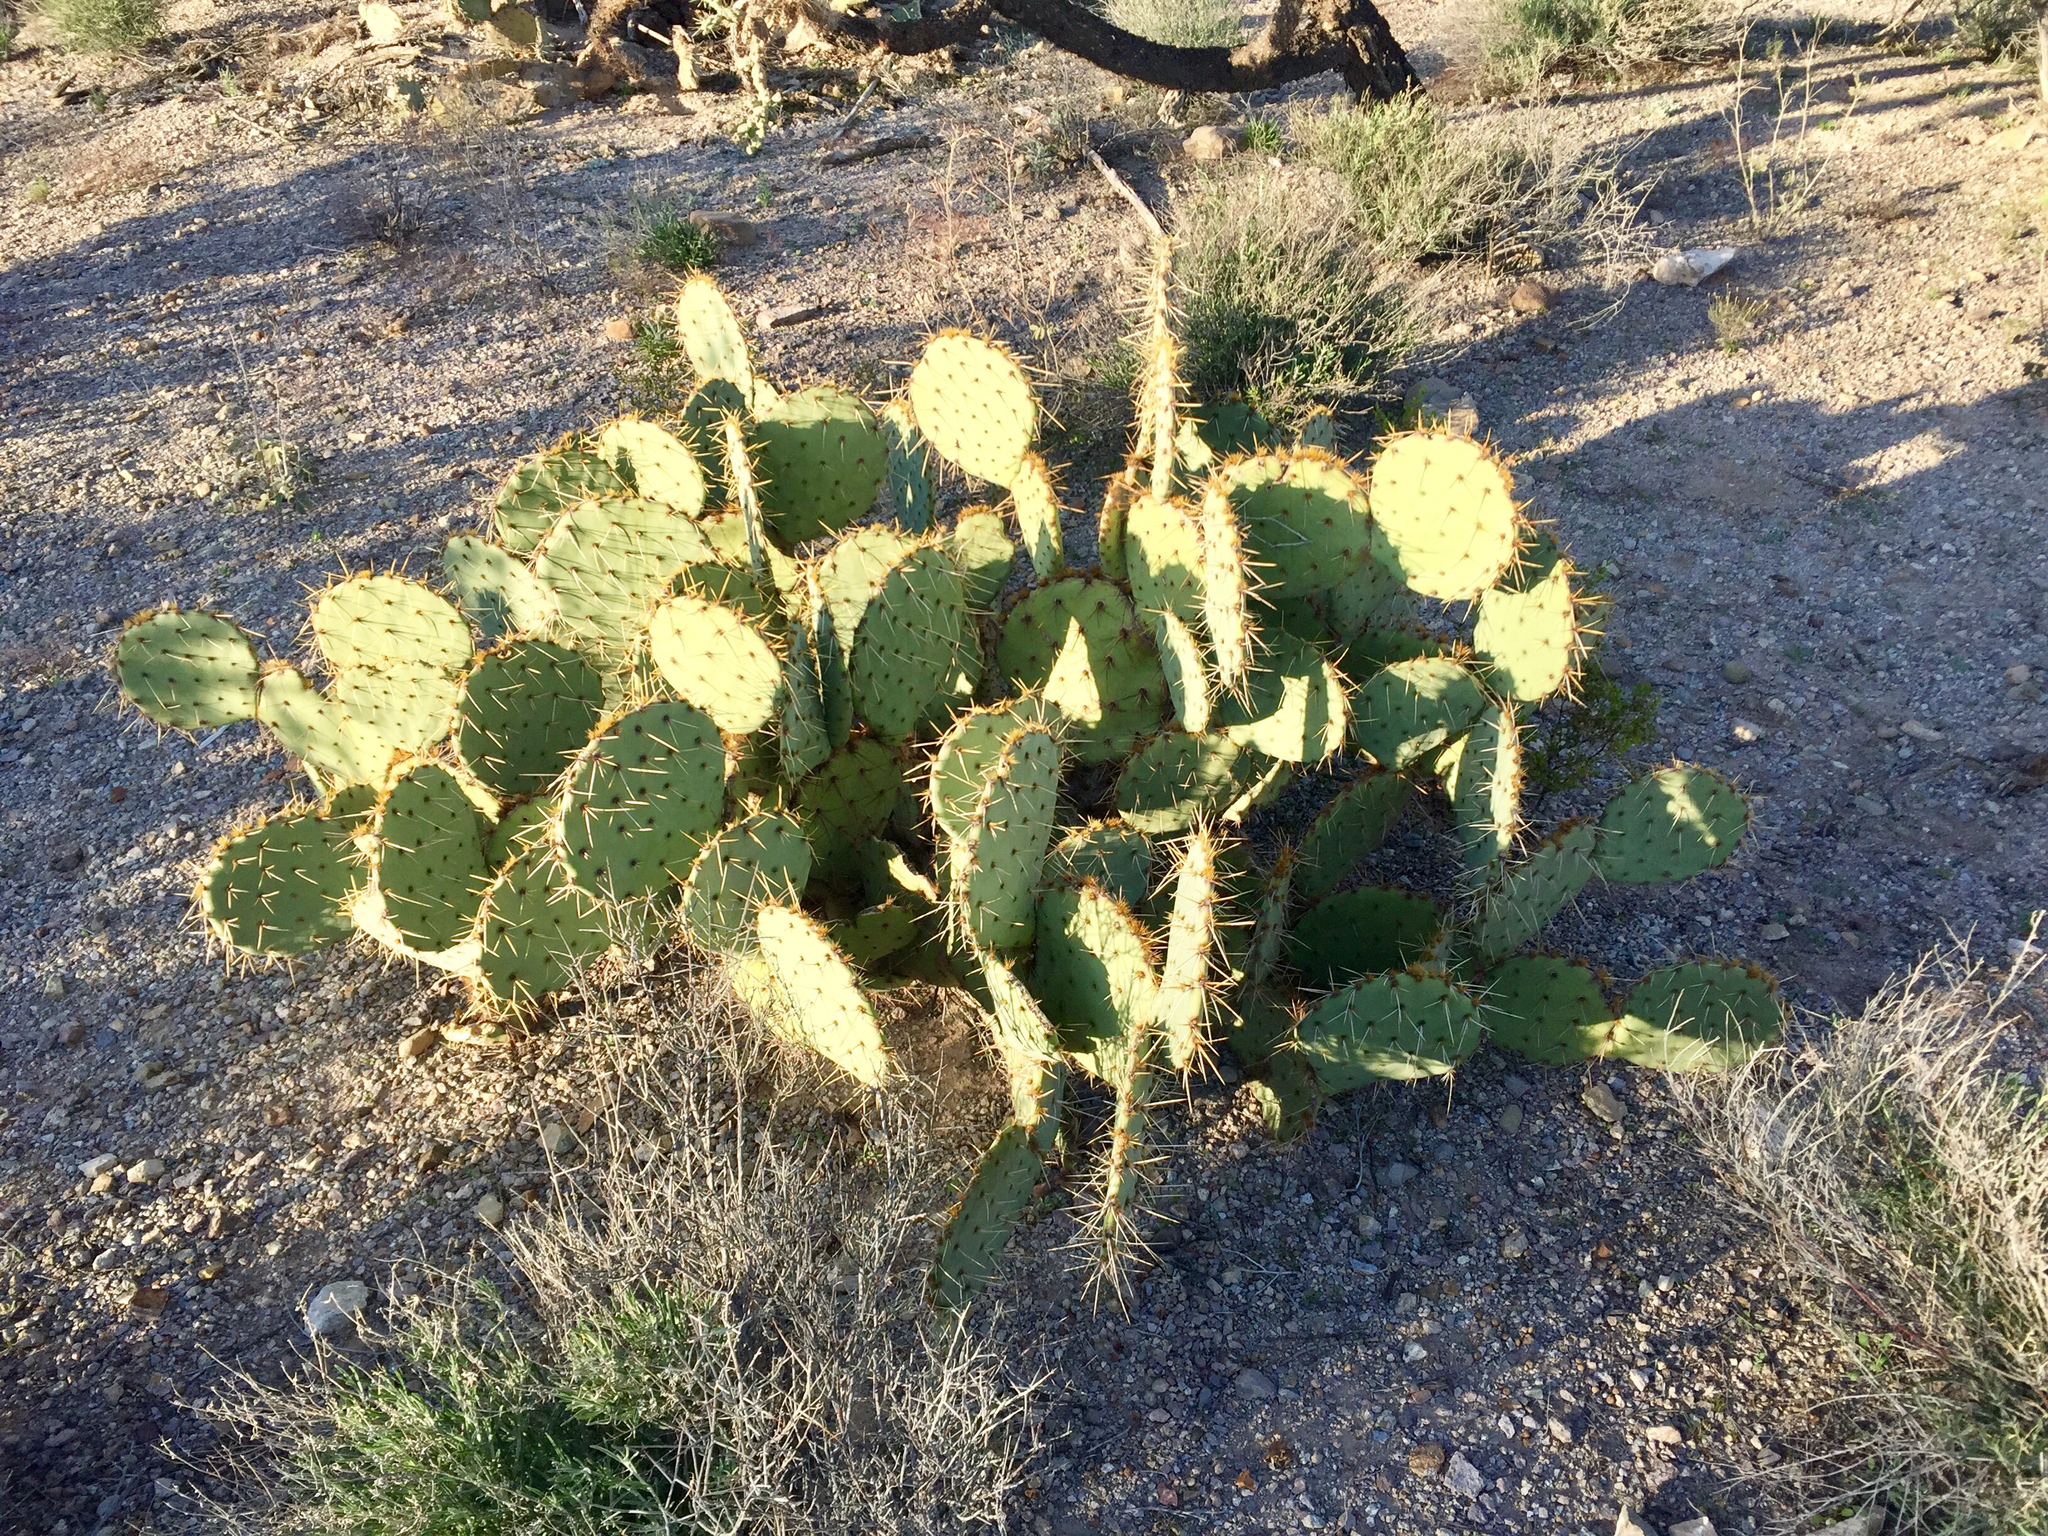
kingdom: Plantae
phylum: Tracheophyta
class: Magnoliopsida
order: Caryophyllales
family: Cactaceae
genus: Opuntia
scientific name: Opuntia engelmannii
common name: Cactus-apple
